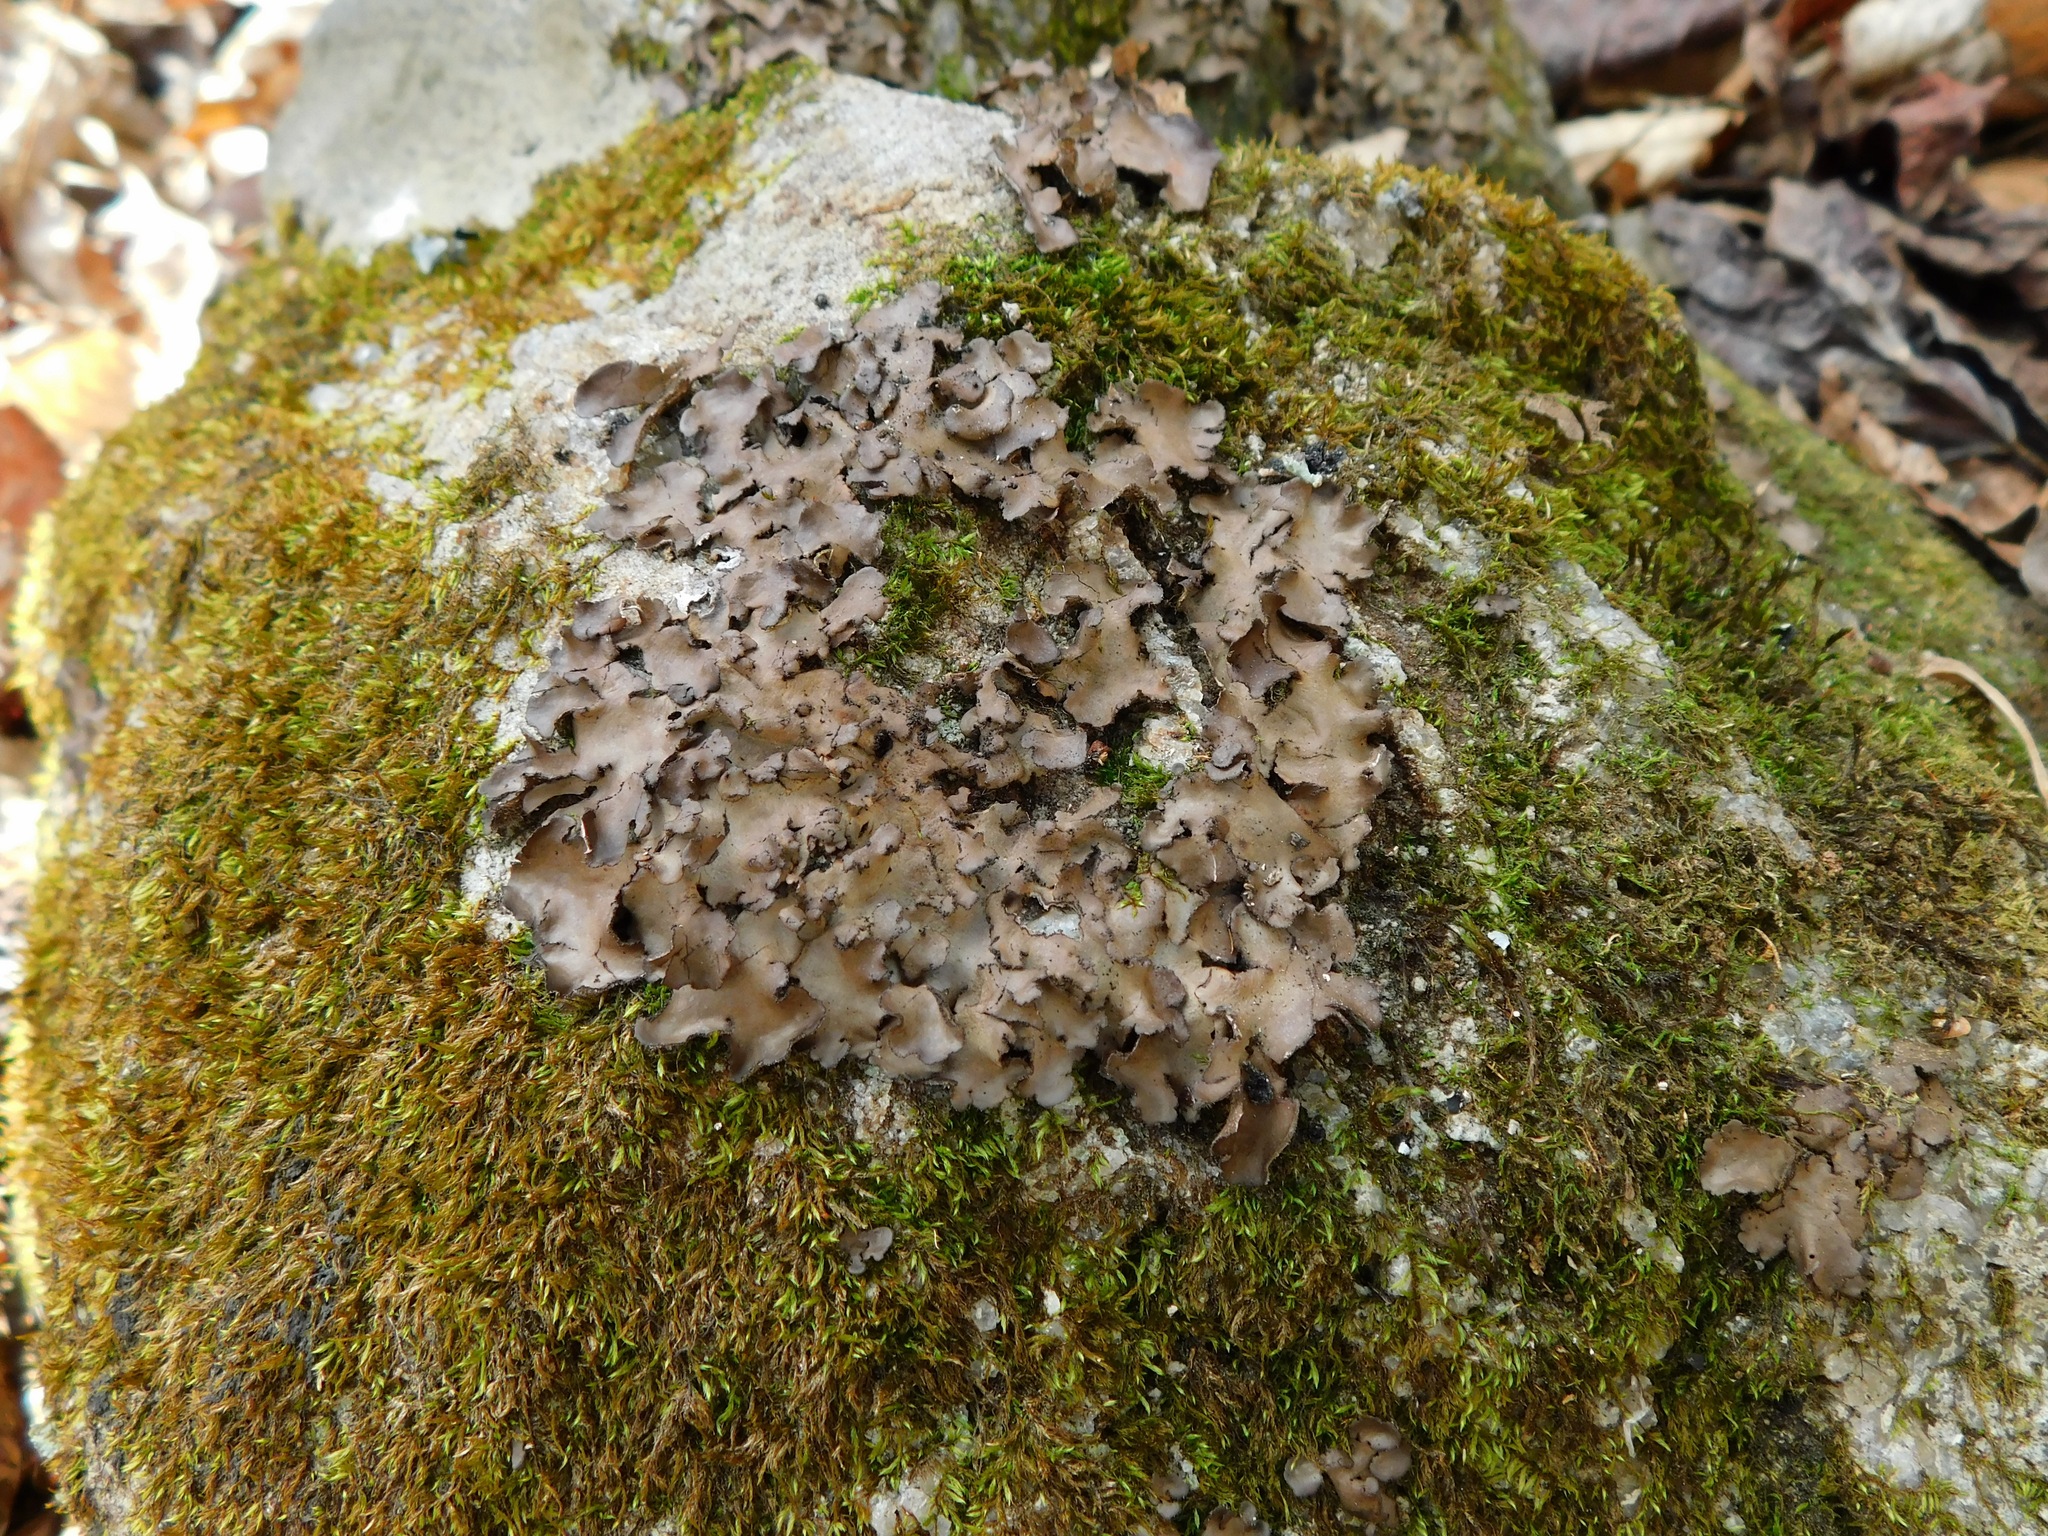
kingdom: Fungi
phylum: Ascomycota
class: Lecanoromycetes
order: Peltigerales
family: Lobariaceae
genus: Sticta
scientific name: Sticta beauvoisii
